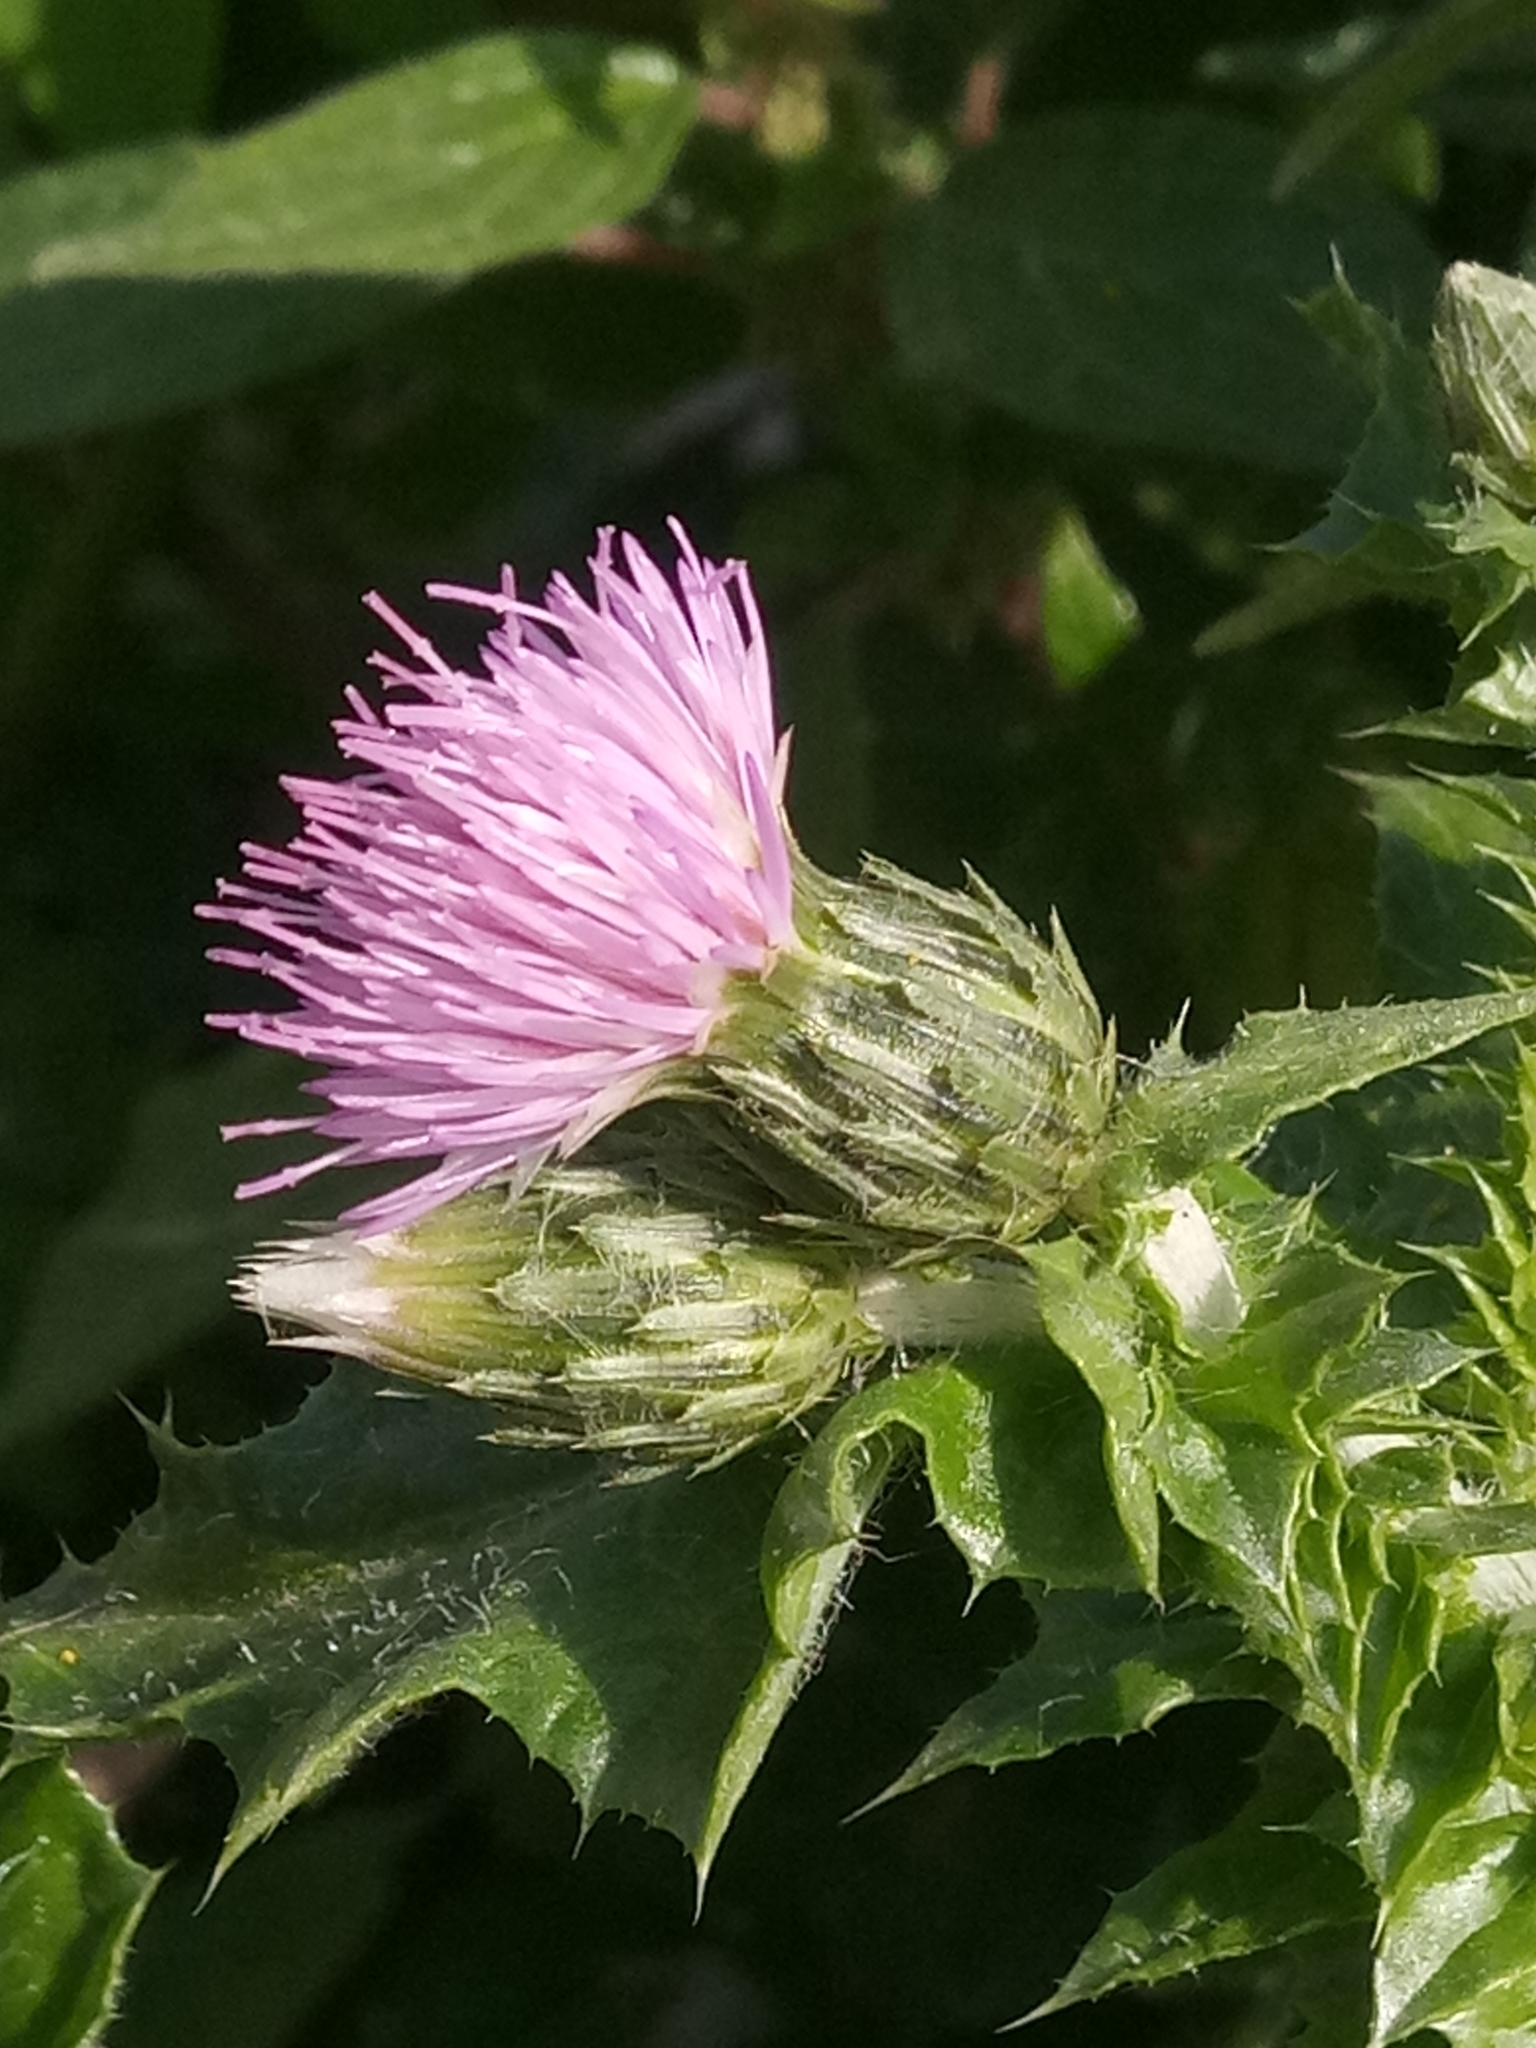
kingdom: Plantae
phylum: Tracheophyta
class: Magnoliopsida
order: Asterales
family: Asteraceae
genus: Carduus
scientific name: Carduus spachianus
